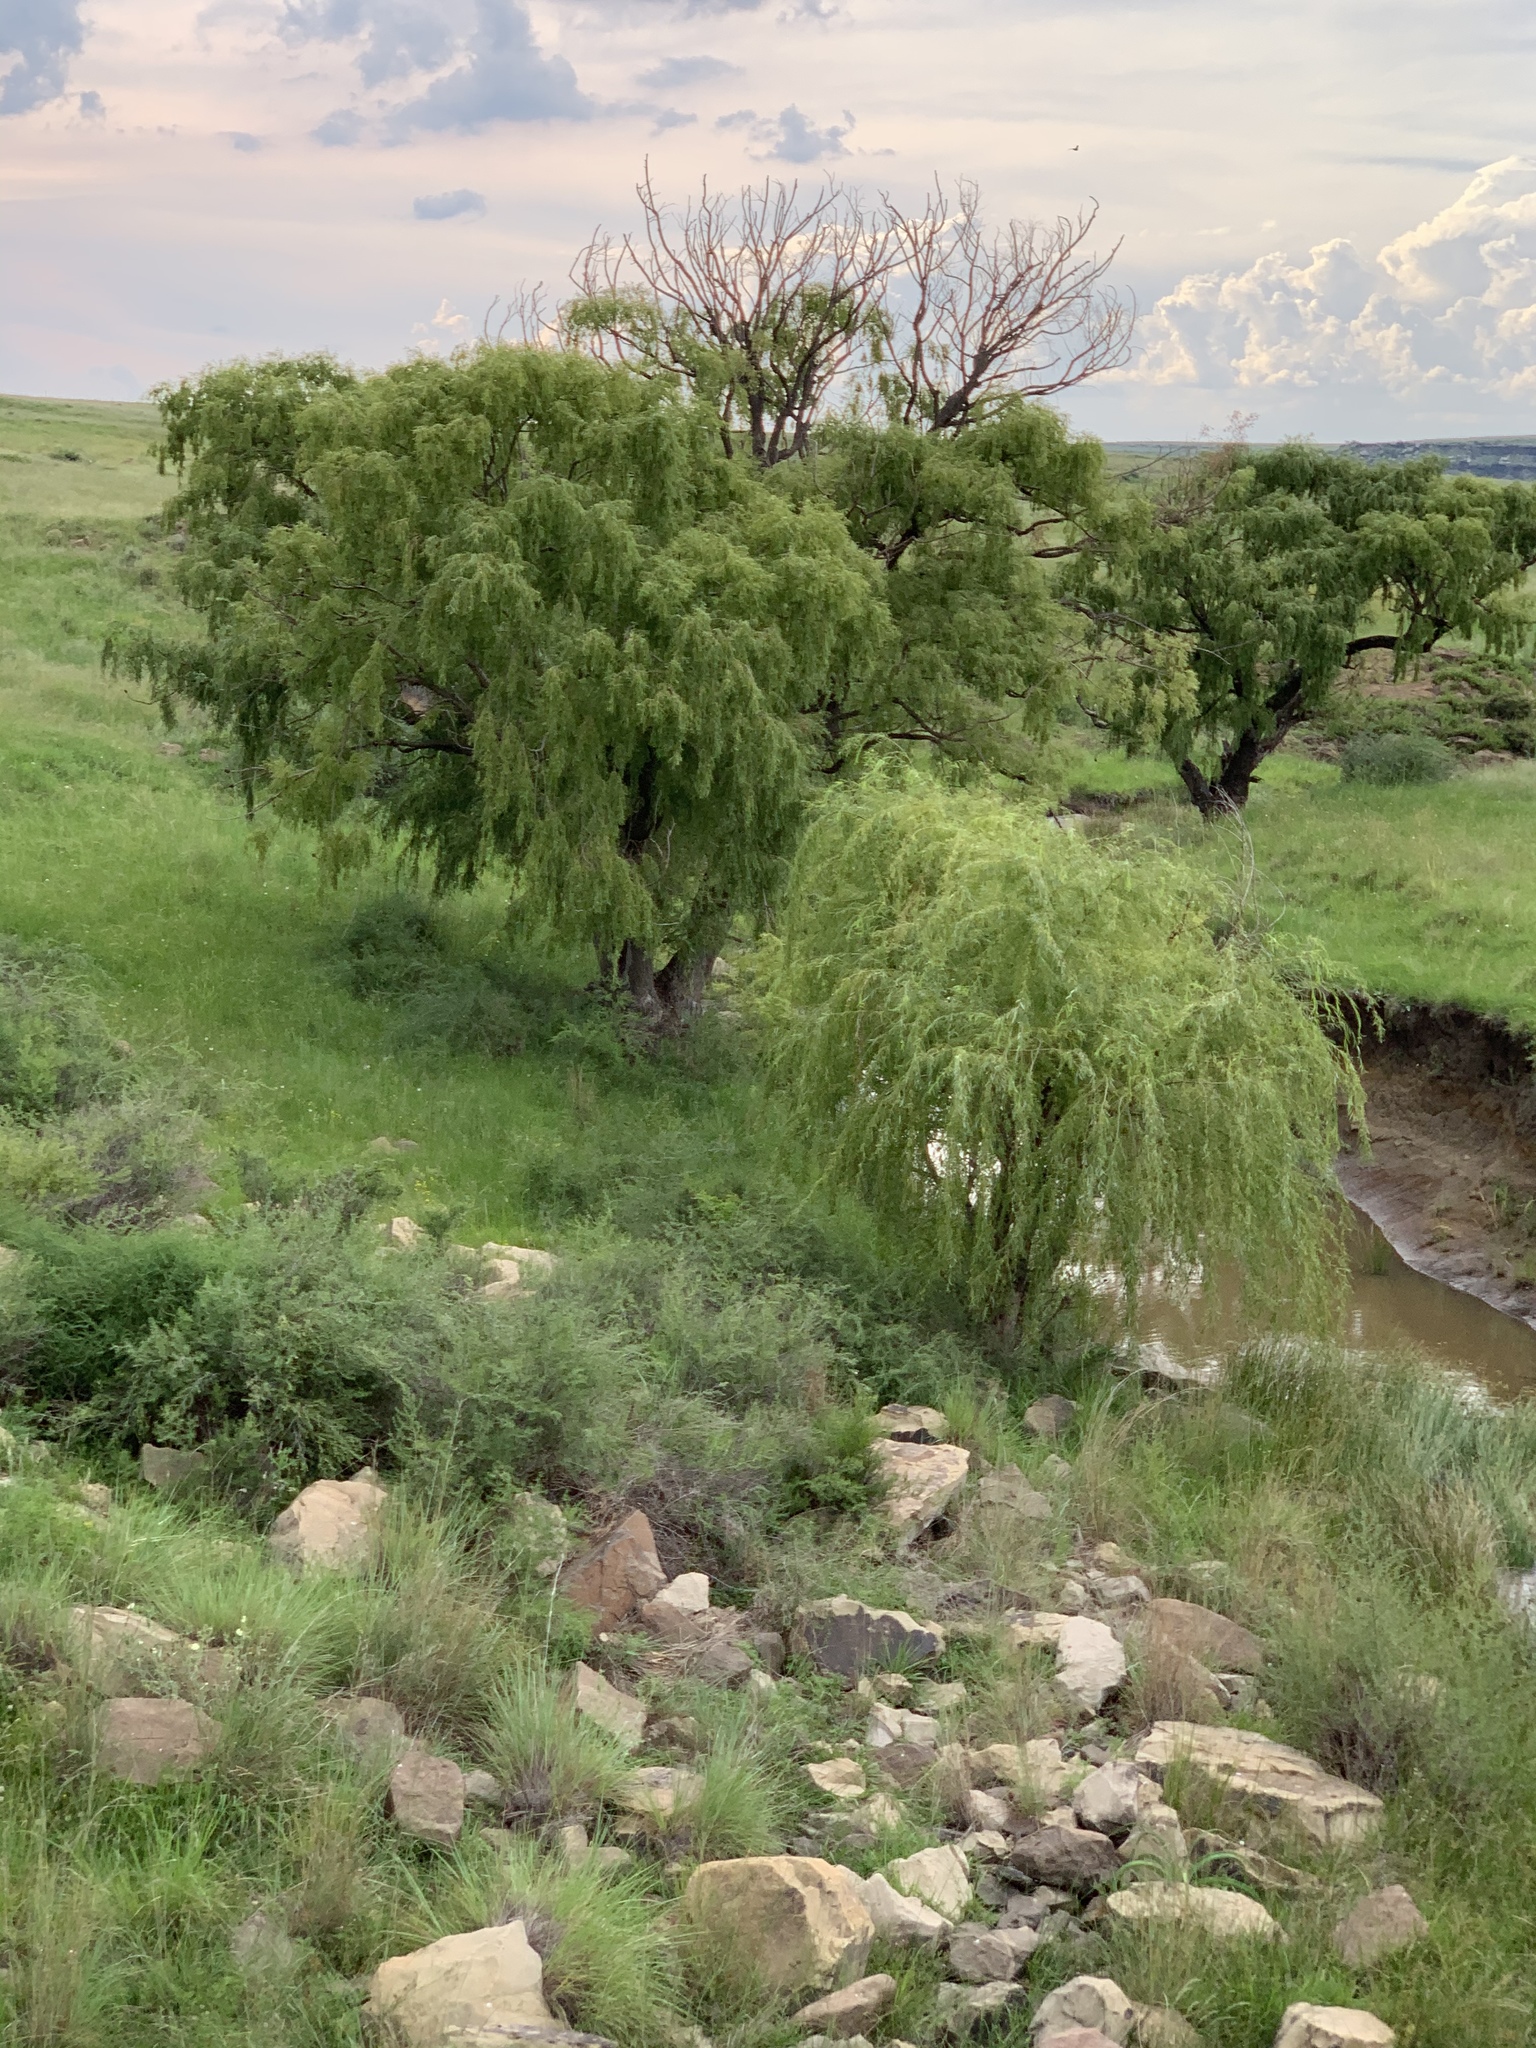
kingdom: Plantae
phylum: Tracheophyta
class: Magnoliopsida
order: Malpighiales
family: Salicaceae
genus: Salix
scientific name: Salix babylonica
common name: Weeping willow
